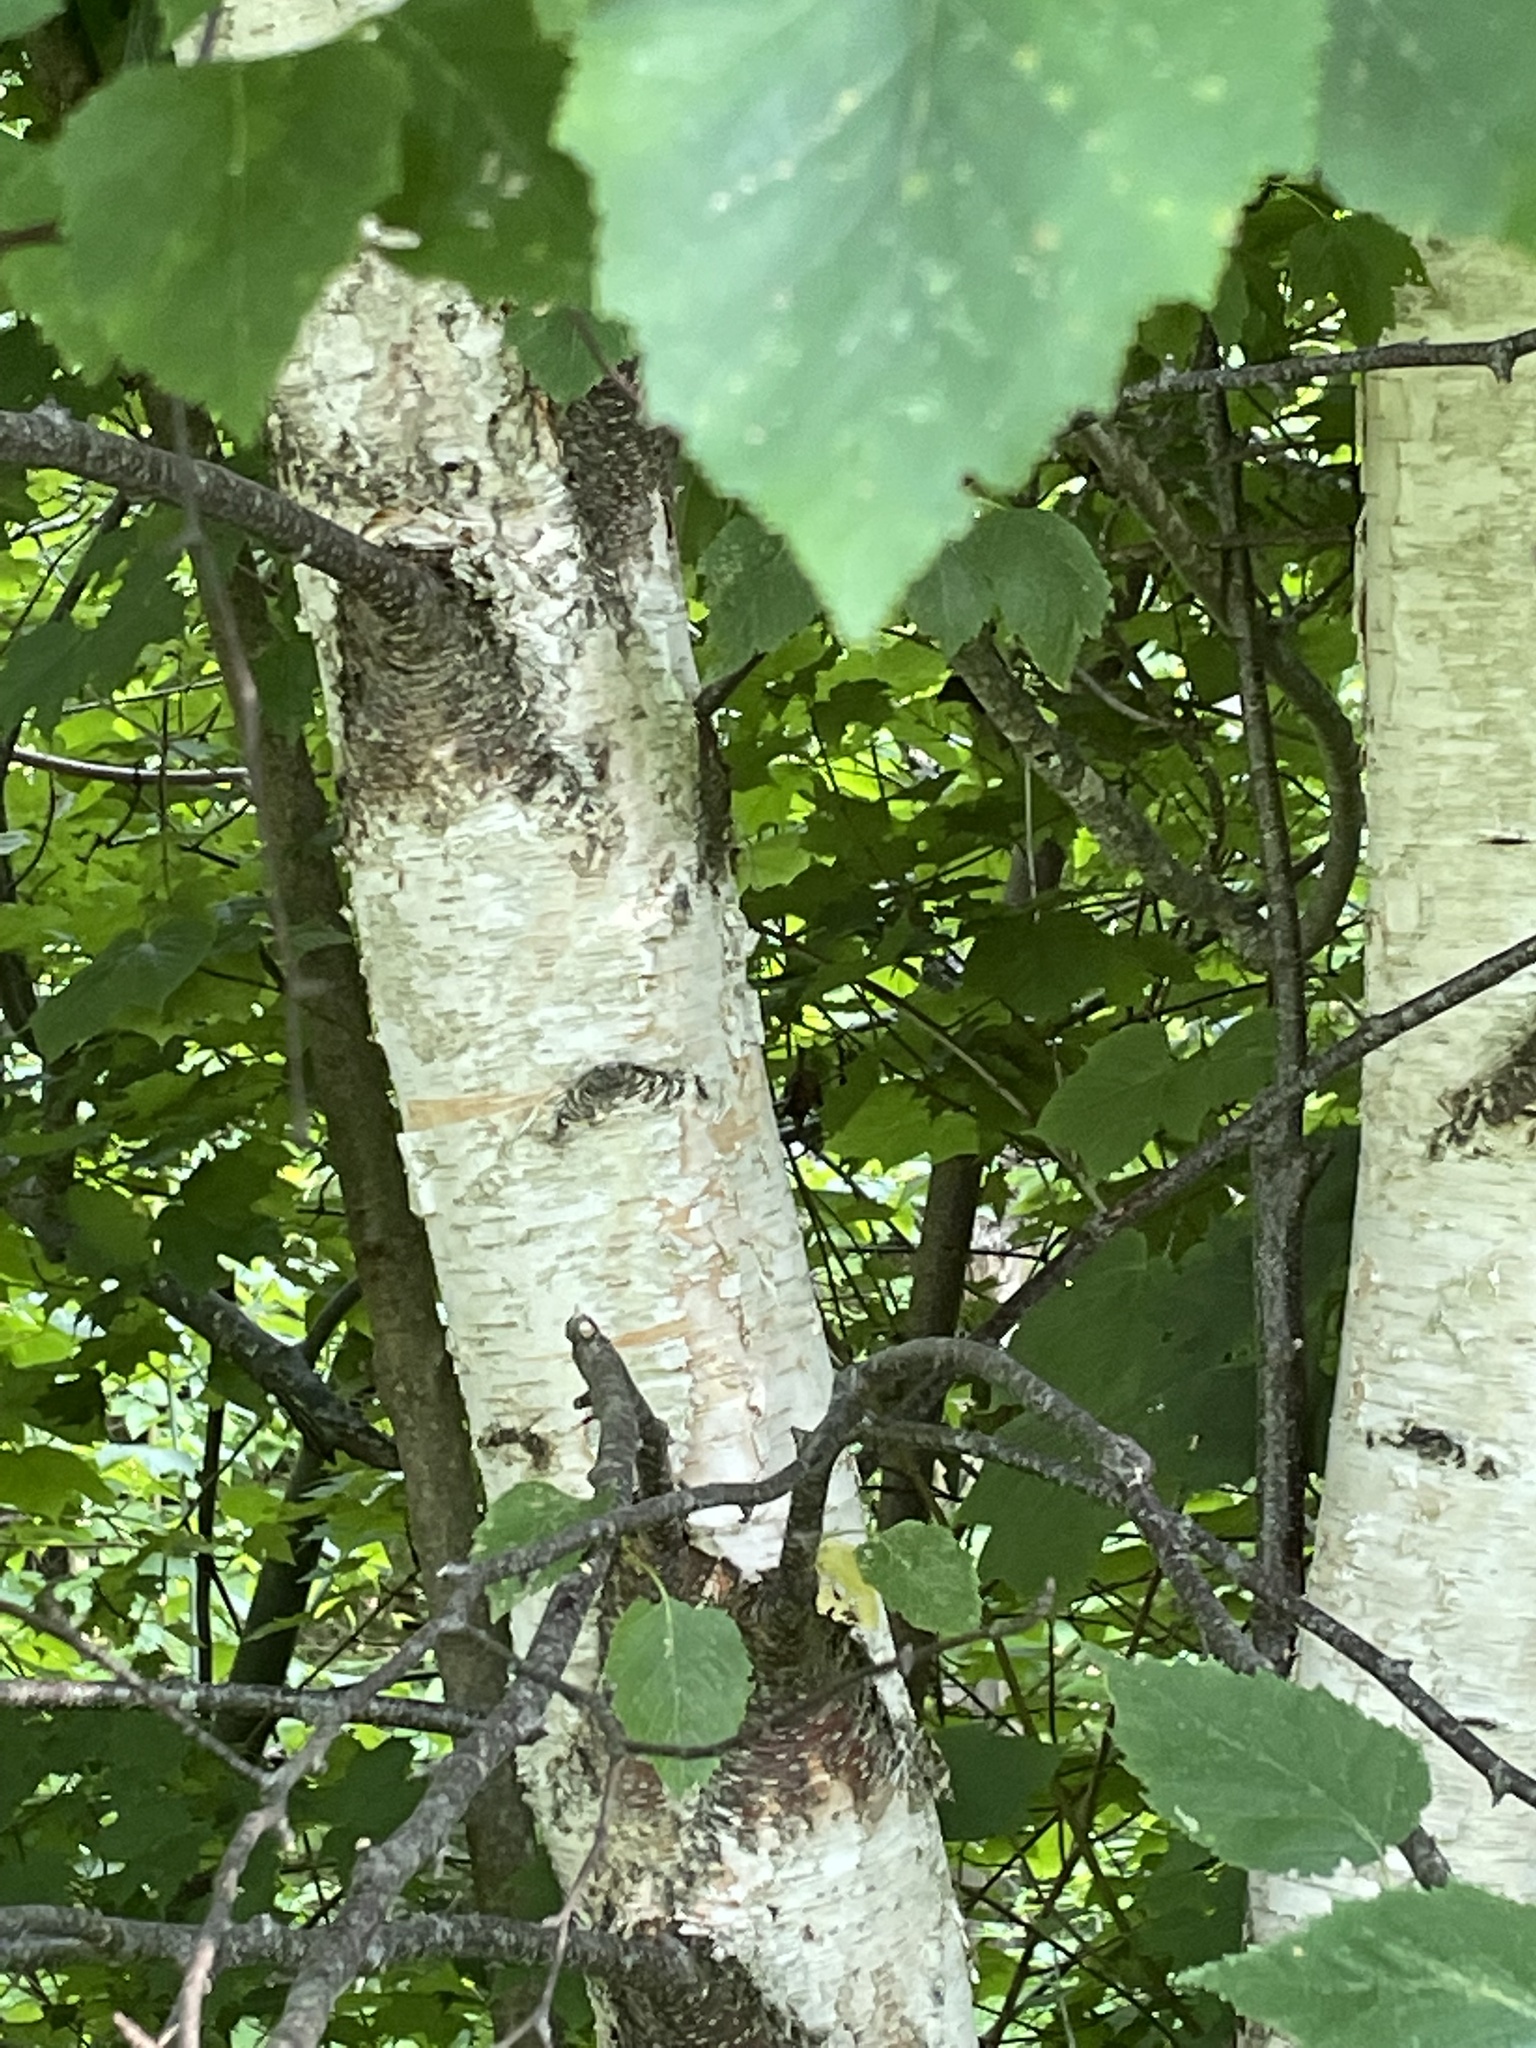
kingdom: Plantae
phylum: Tracheophyta
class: Magnoliopsida
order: Fagales
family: Betulaceae
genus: Betula
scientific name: Betula papyrifera
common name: Paper birch
